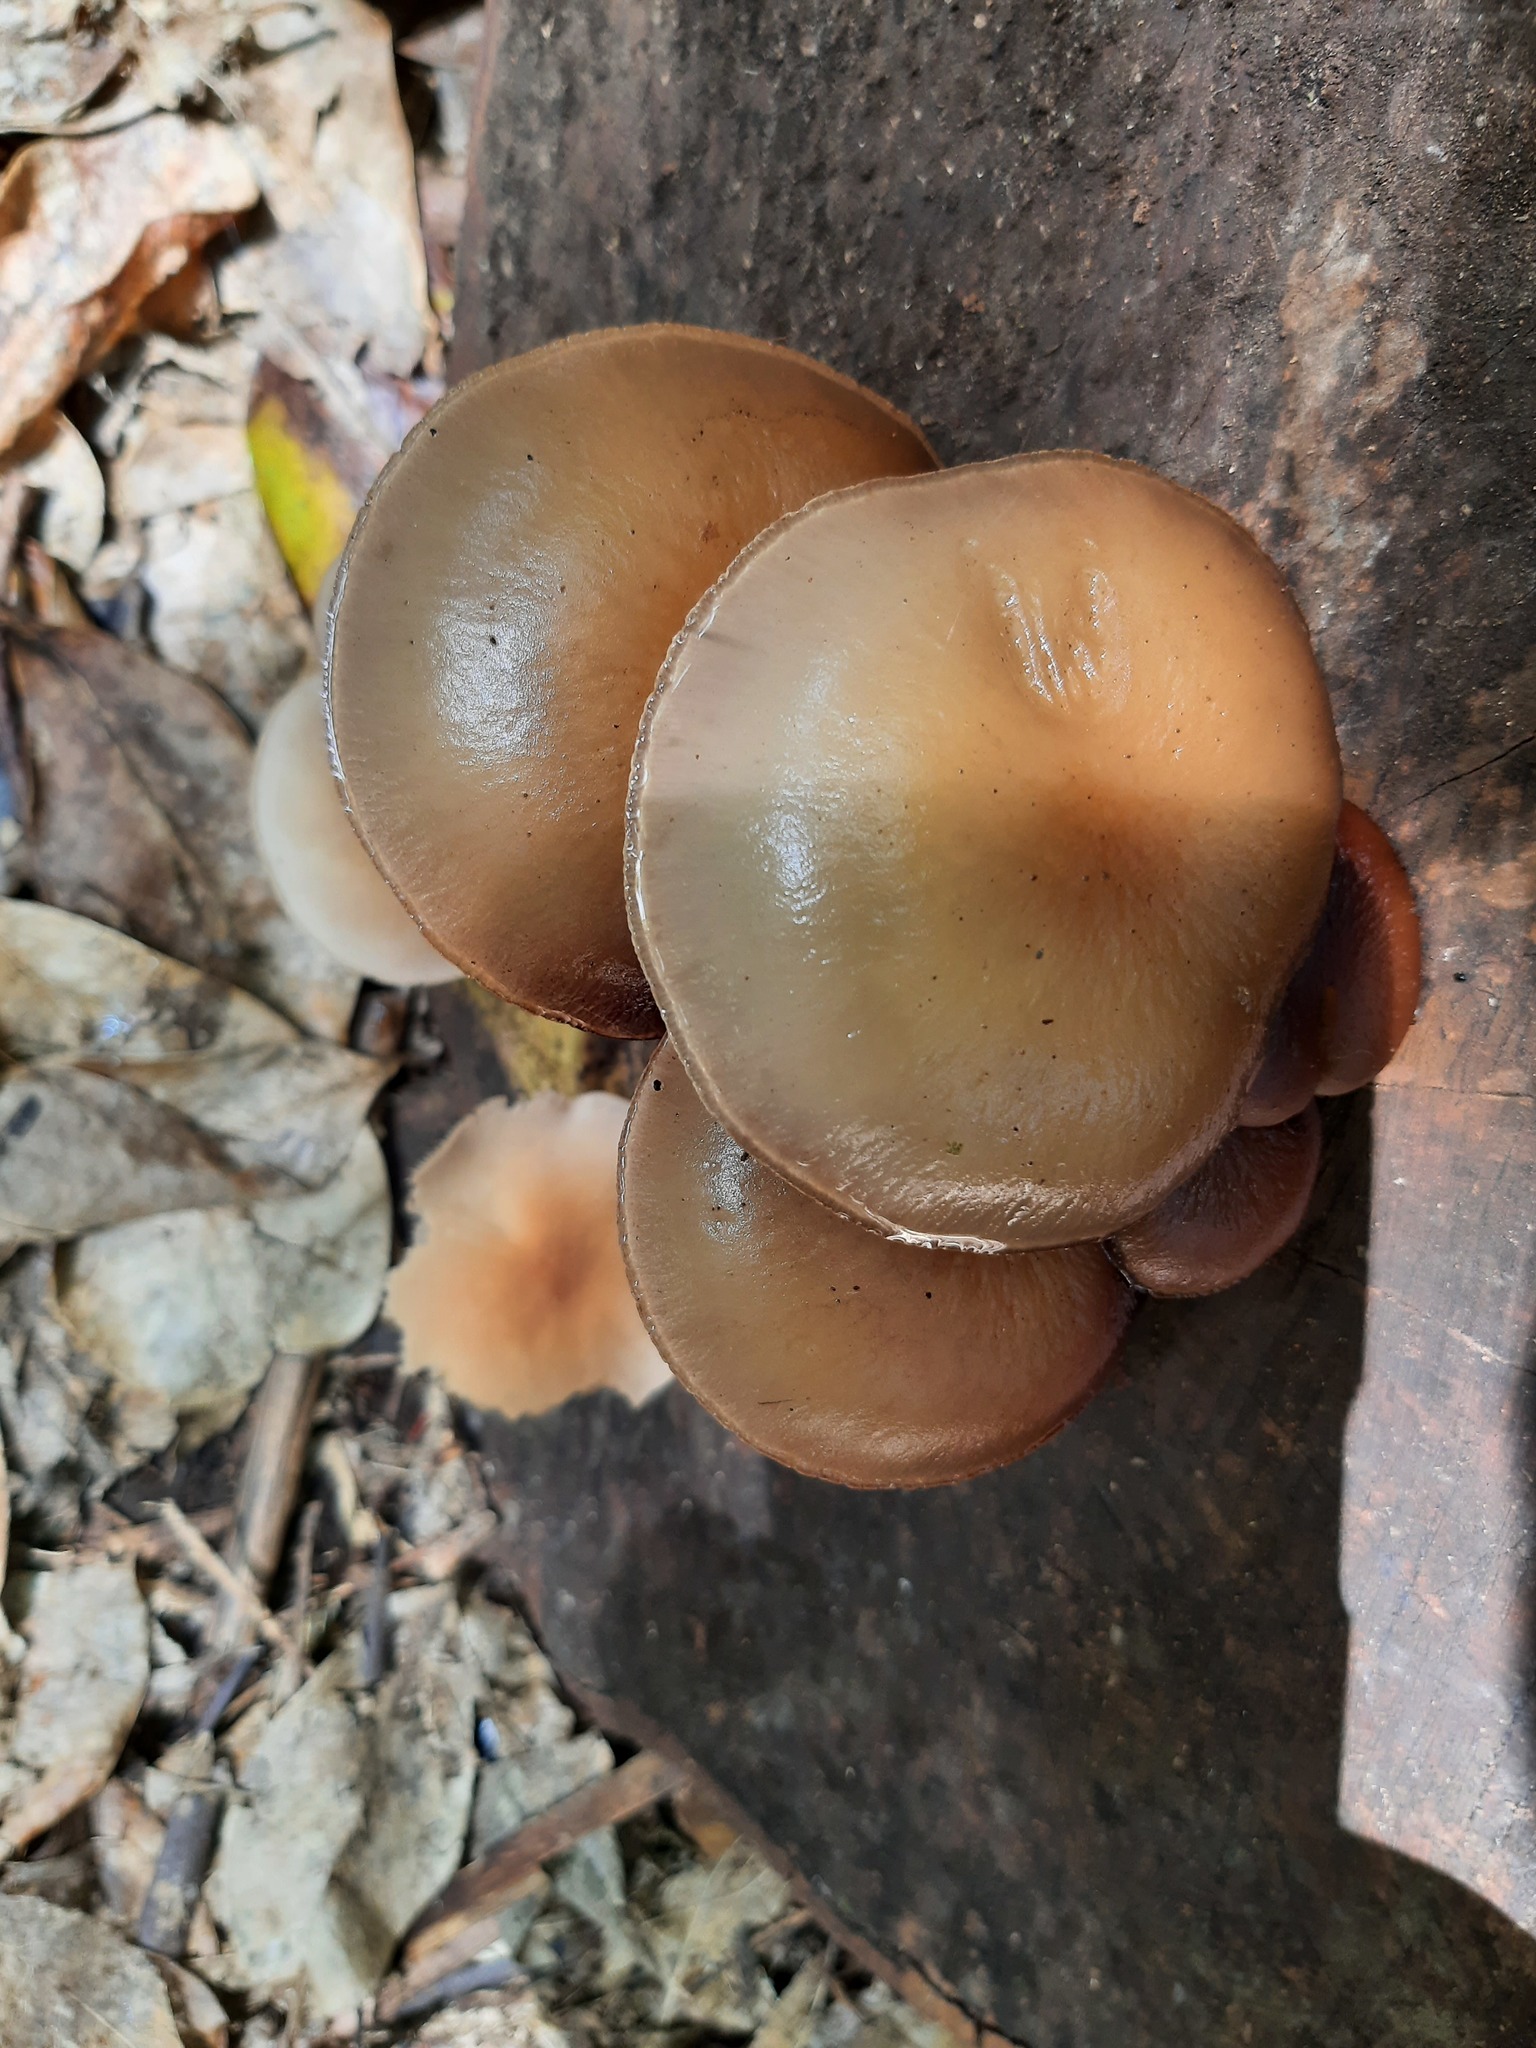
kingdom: Fungi
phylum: Basidiomycota
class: Agaricomycetes
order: Agaricales
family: Tubariaceae
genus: Cyclocybe
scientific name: Cyclocybe parasitica
